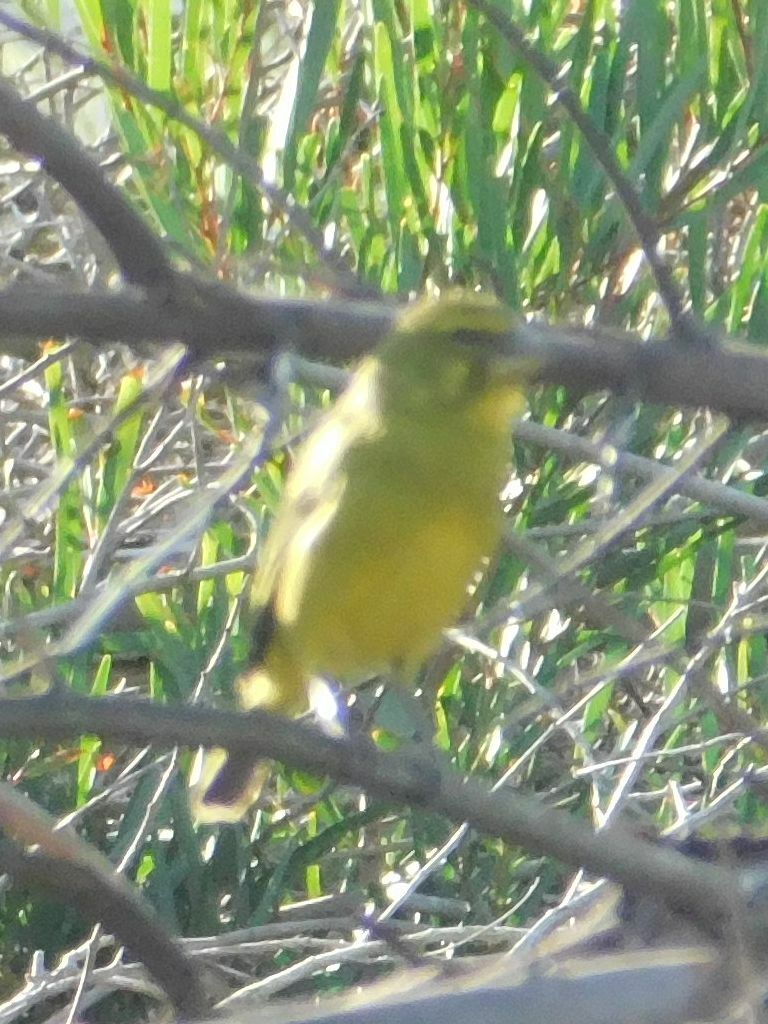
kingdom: Animalia
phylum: Chordata
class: Aves
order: Passeriformes
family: Fringillidae
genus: Crithagra
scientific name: Crithagra sulphurata
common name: Brimstone canary
